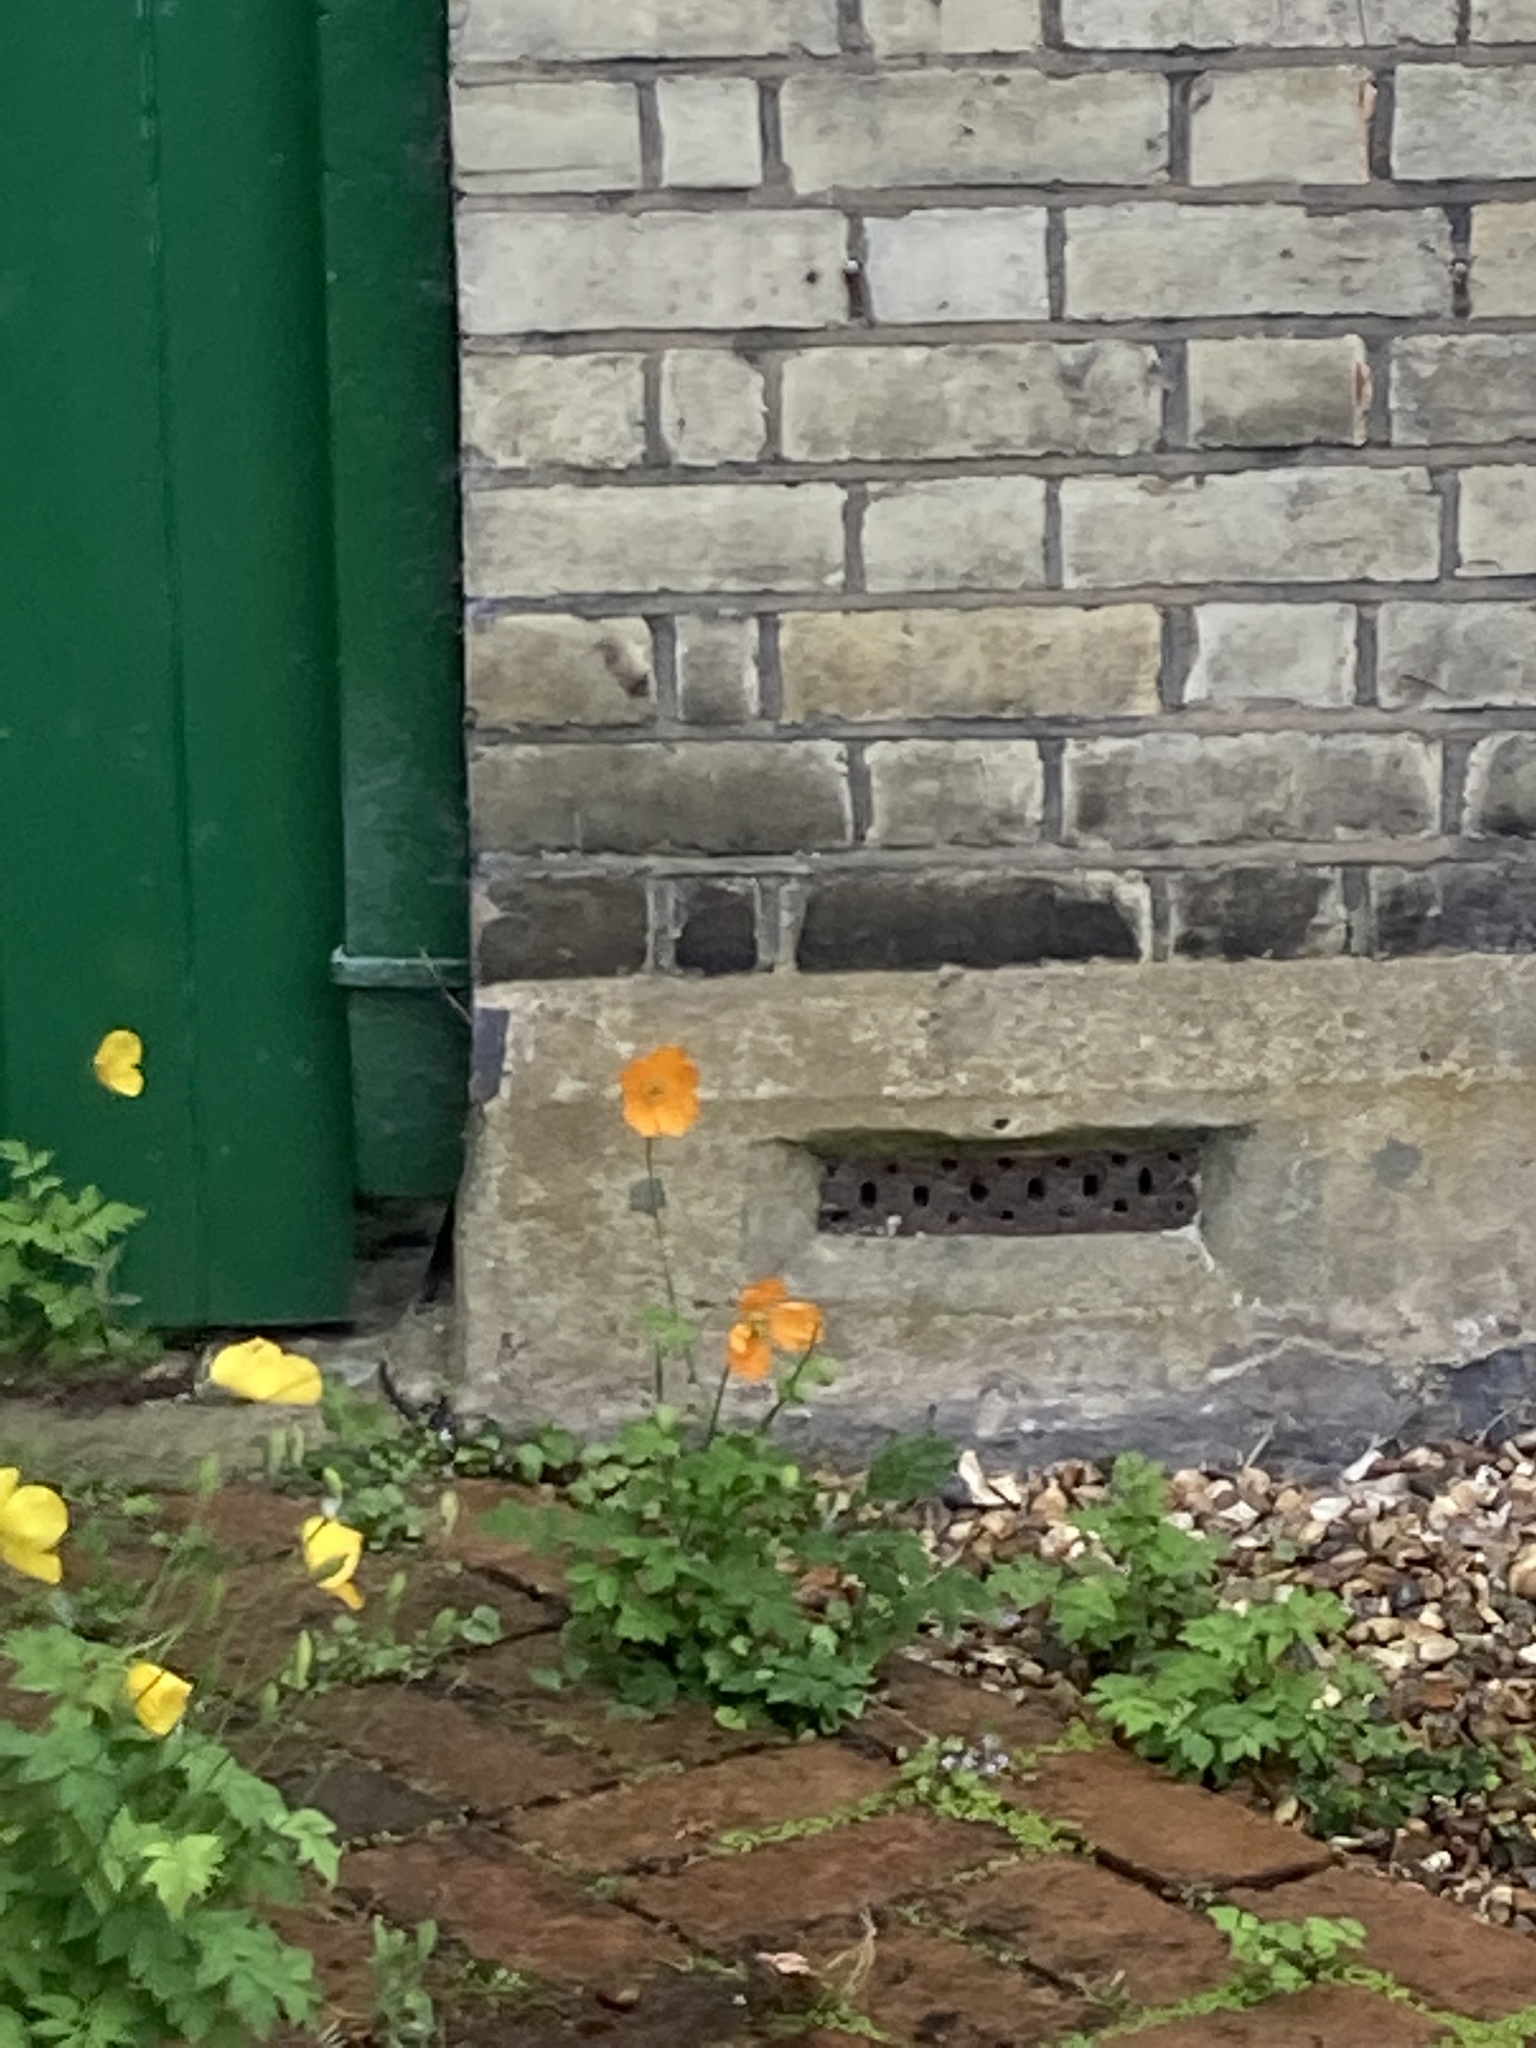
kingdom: Plantae
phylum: Tracheophyta
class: Magnoliopsida
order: Ranunculales
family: Papaveraceae
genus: Papaver
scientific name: Papaver cambricum
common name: Poppy
